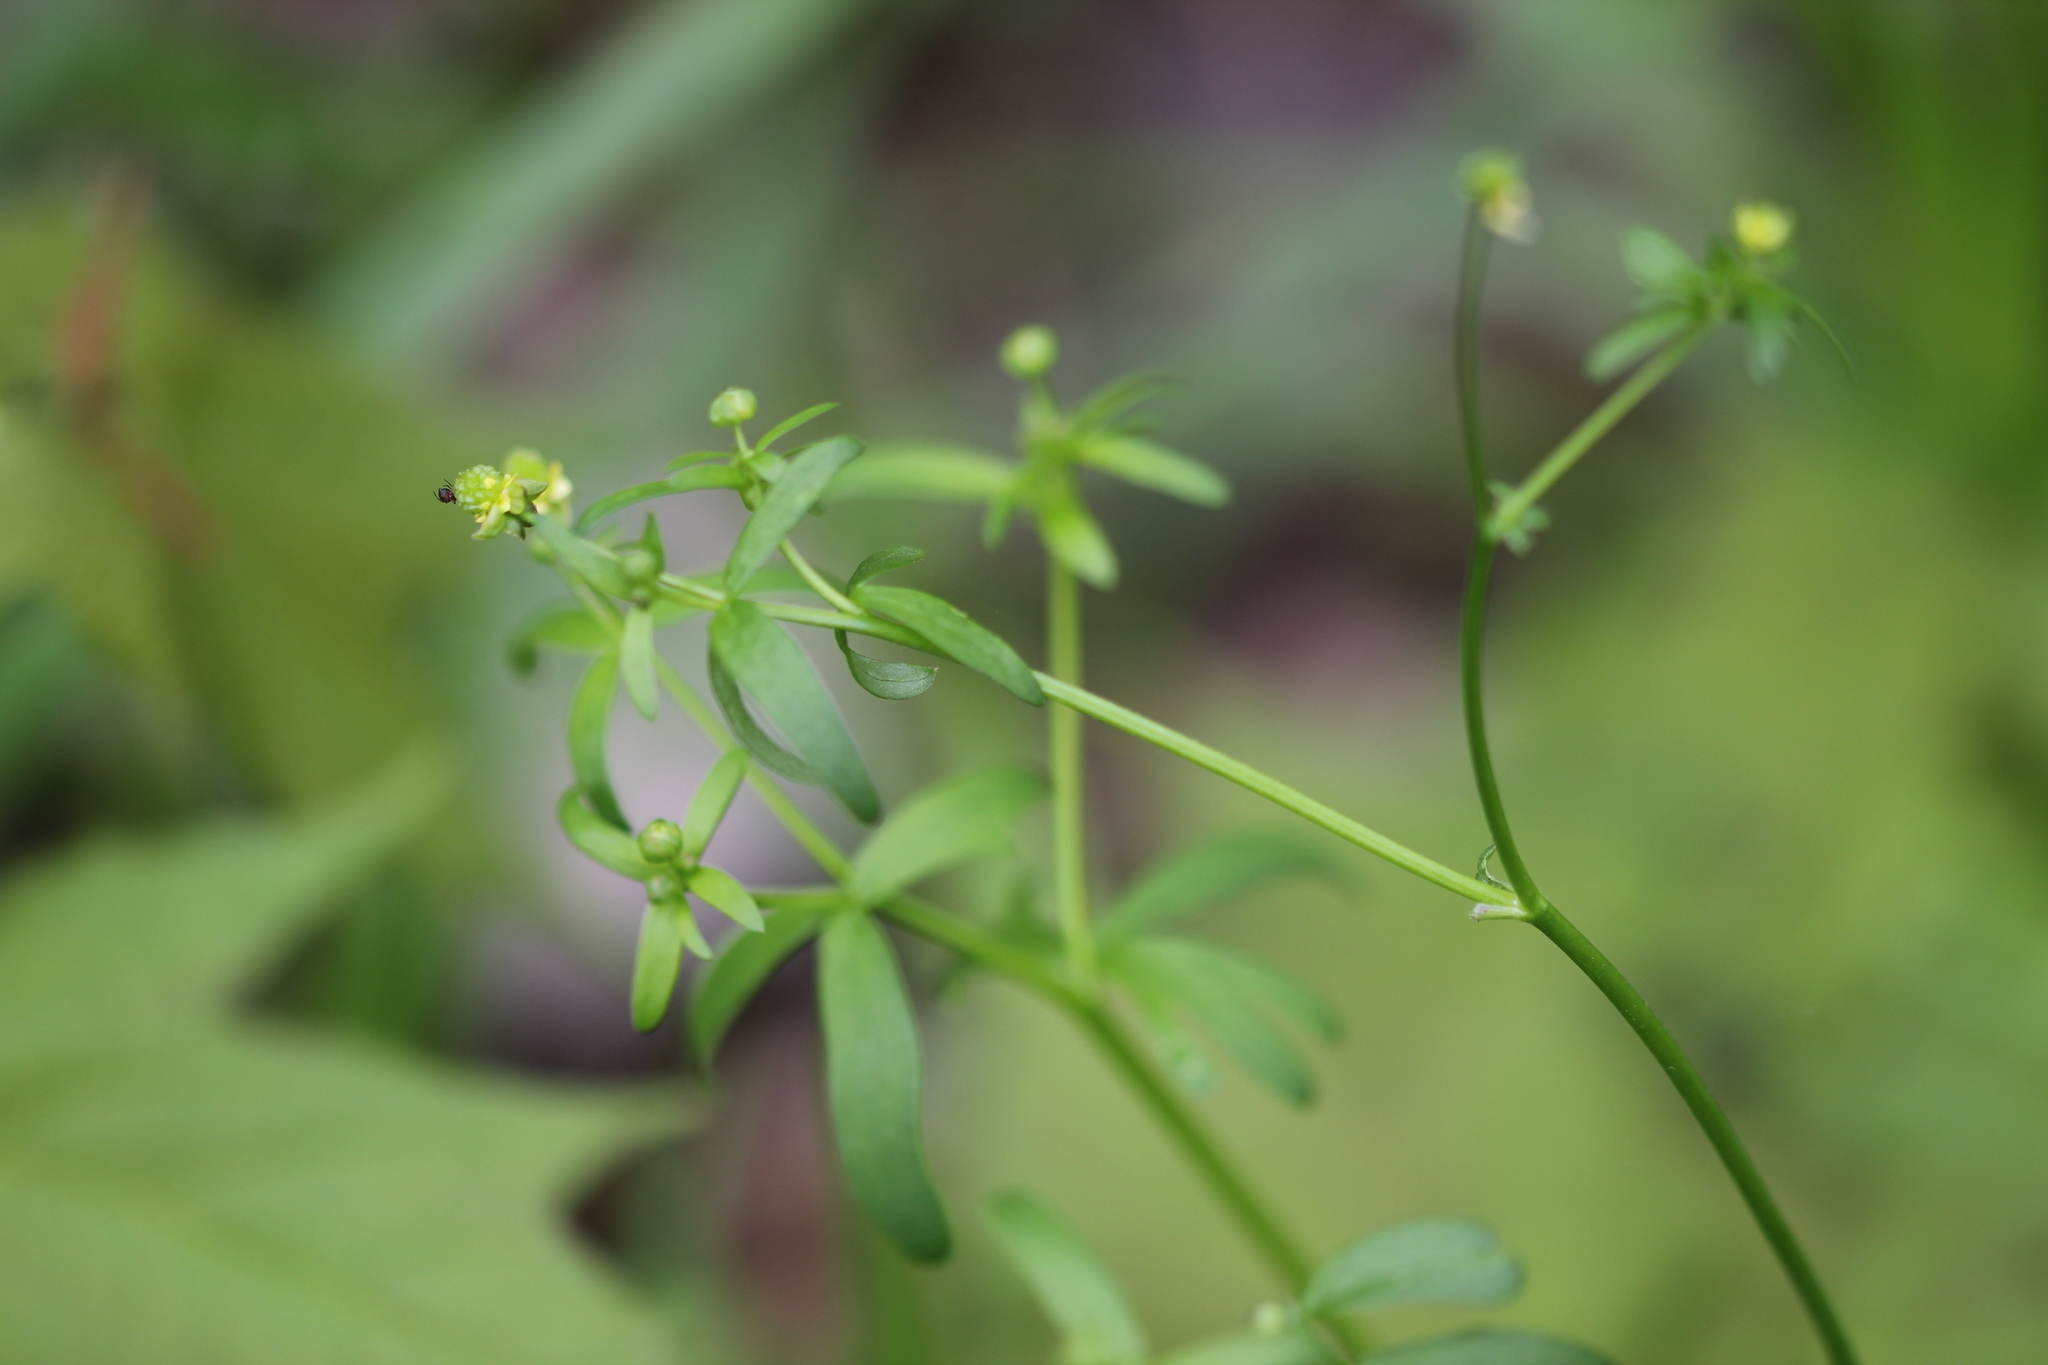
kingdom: Plantae
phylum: Tracheophyta
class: Magnoliopsida
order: Ranunculales
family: Ranunculaceae
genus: Ranunculus
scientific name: Ranunculus abortivus
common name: Early wood buttercup
